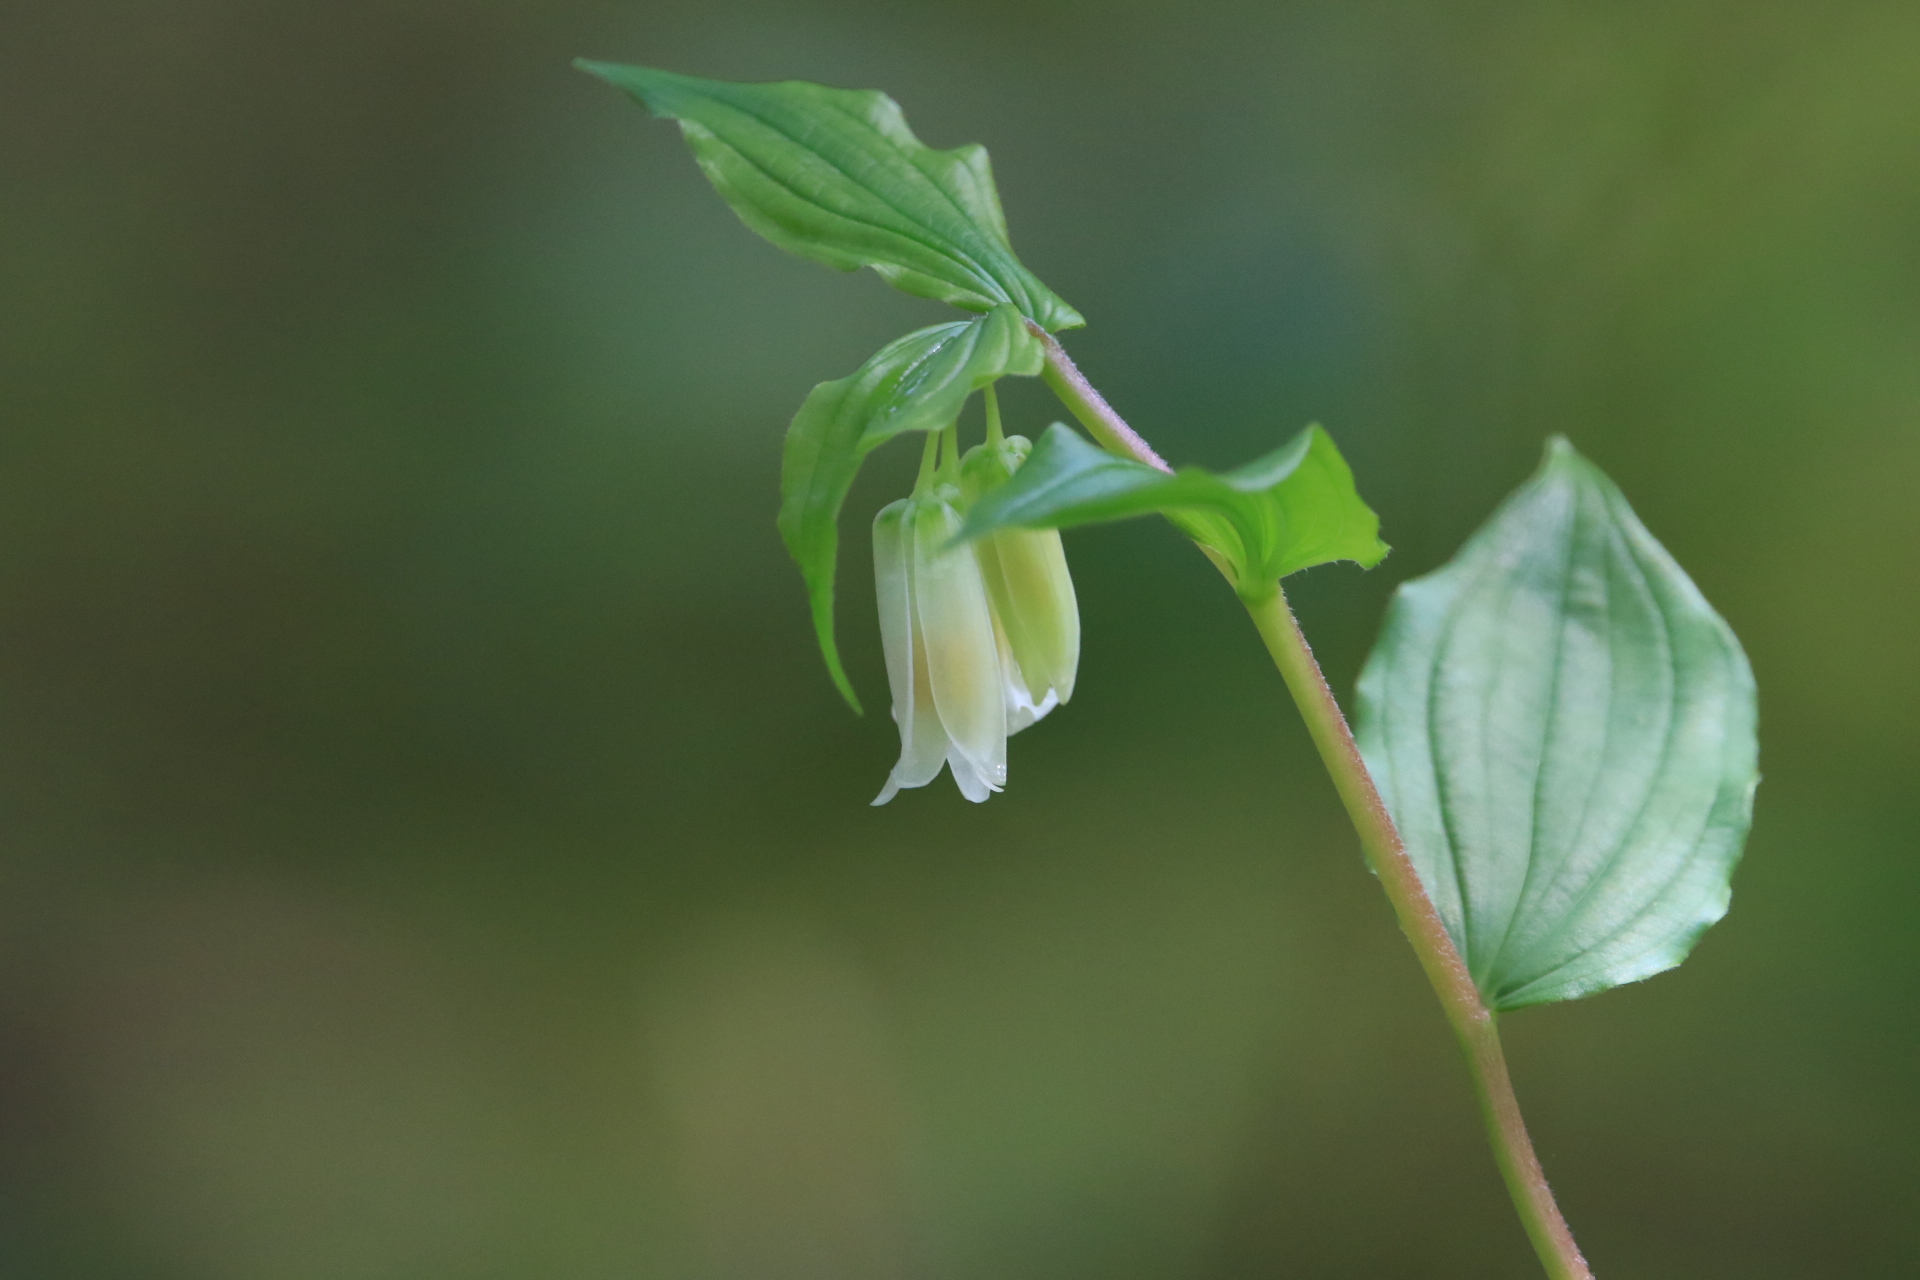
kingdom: Plantae
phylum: Tracheophyta
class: Liliopsida
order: Liliales
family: Liliaceae
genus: Prosartes
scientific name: Prosartes smithii
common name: Fairy-lantern
